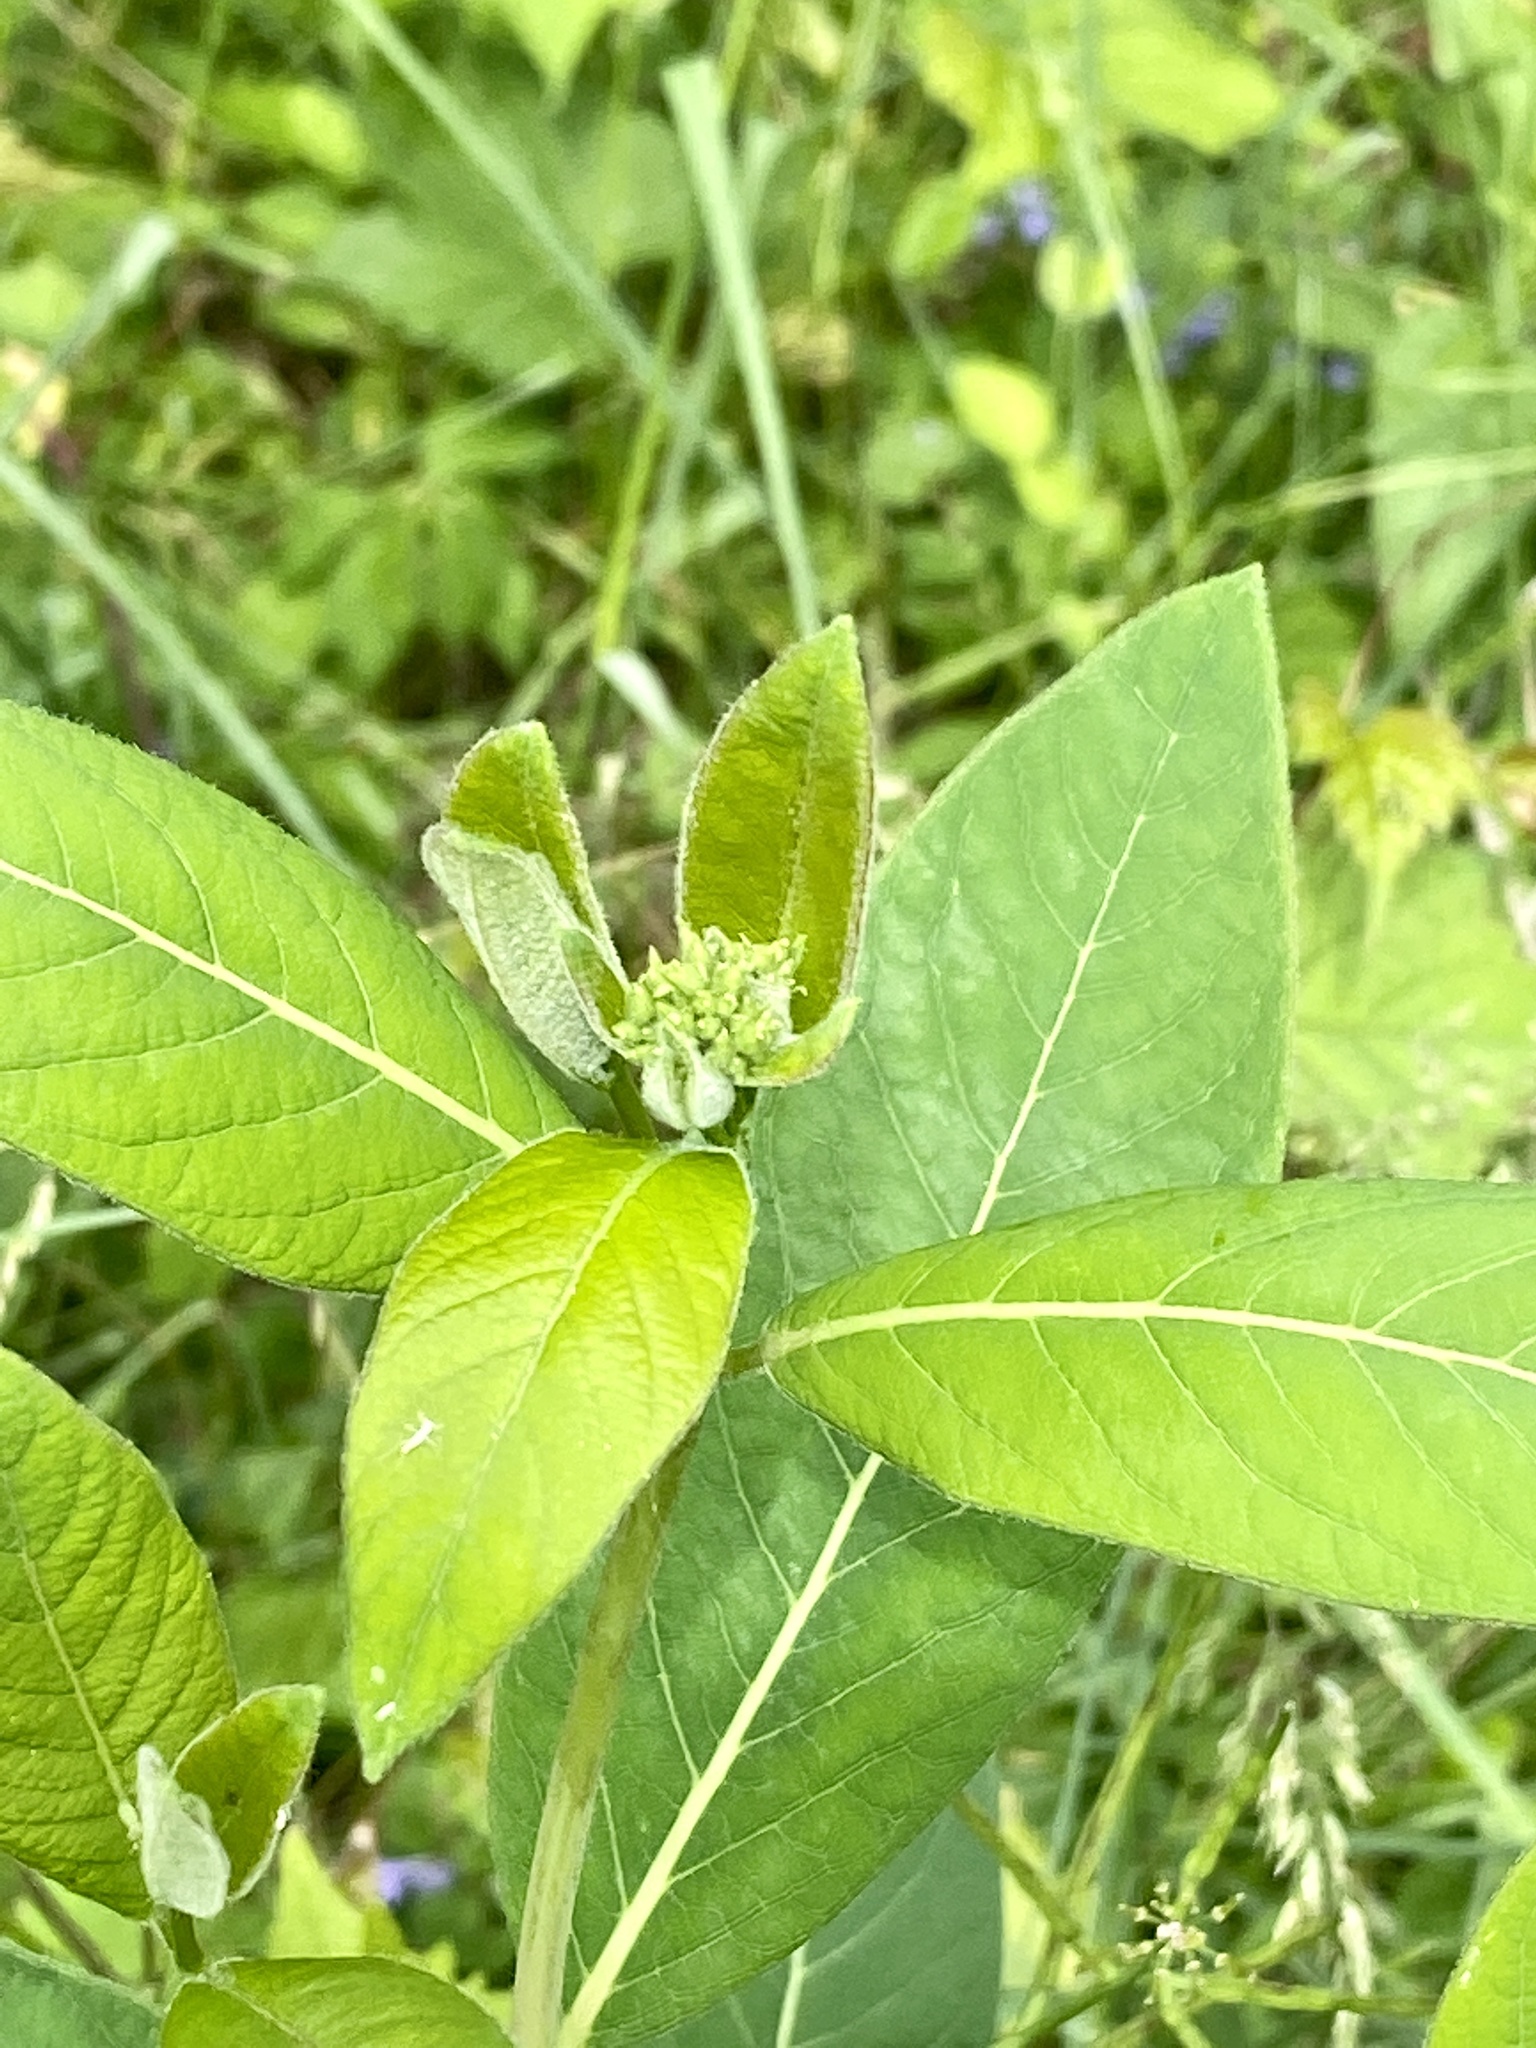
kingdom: Plantae
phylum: Tracheophyta
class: Magnoliopsida
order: Gentianales
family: Apocynaceae
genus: Apocynum
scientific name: Apocynum cannabinum
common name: Hemp dogbane
